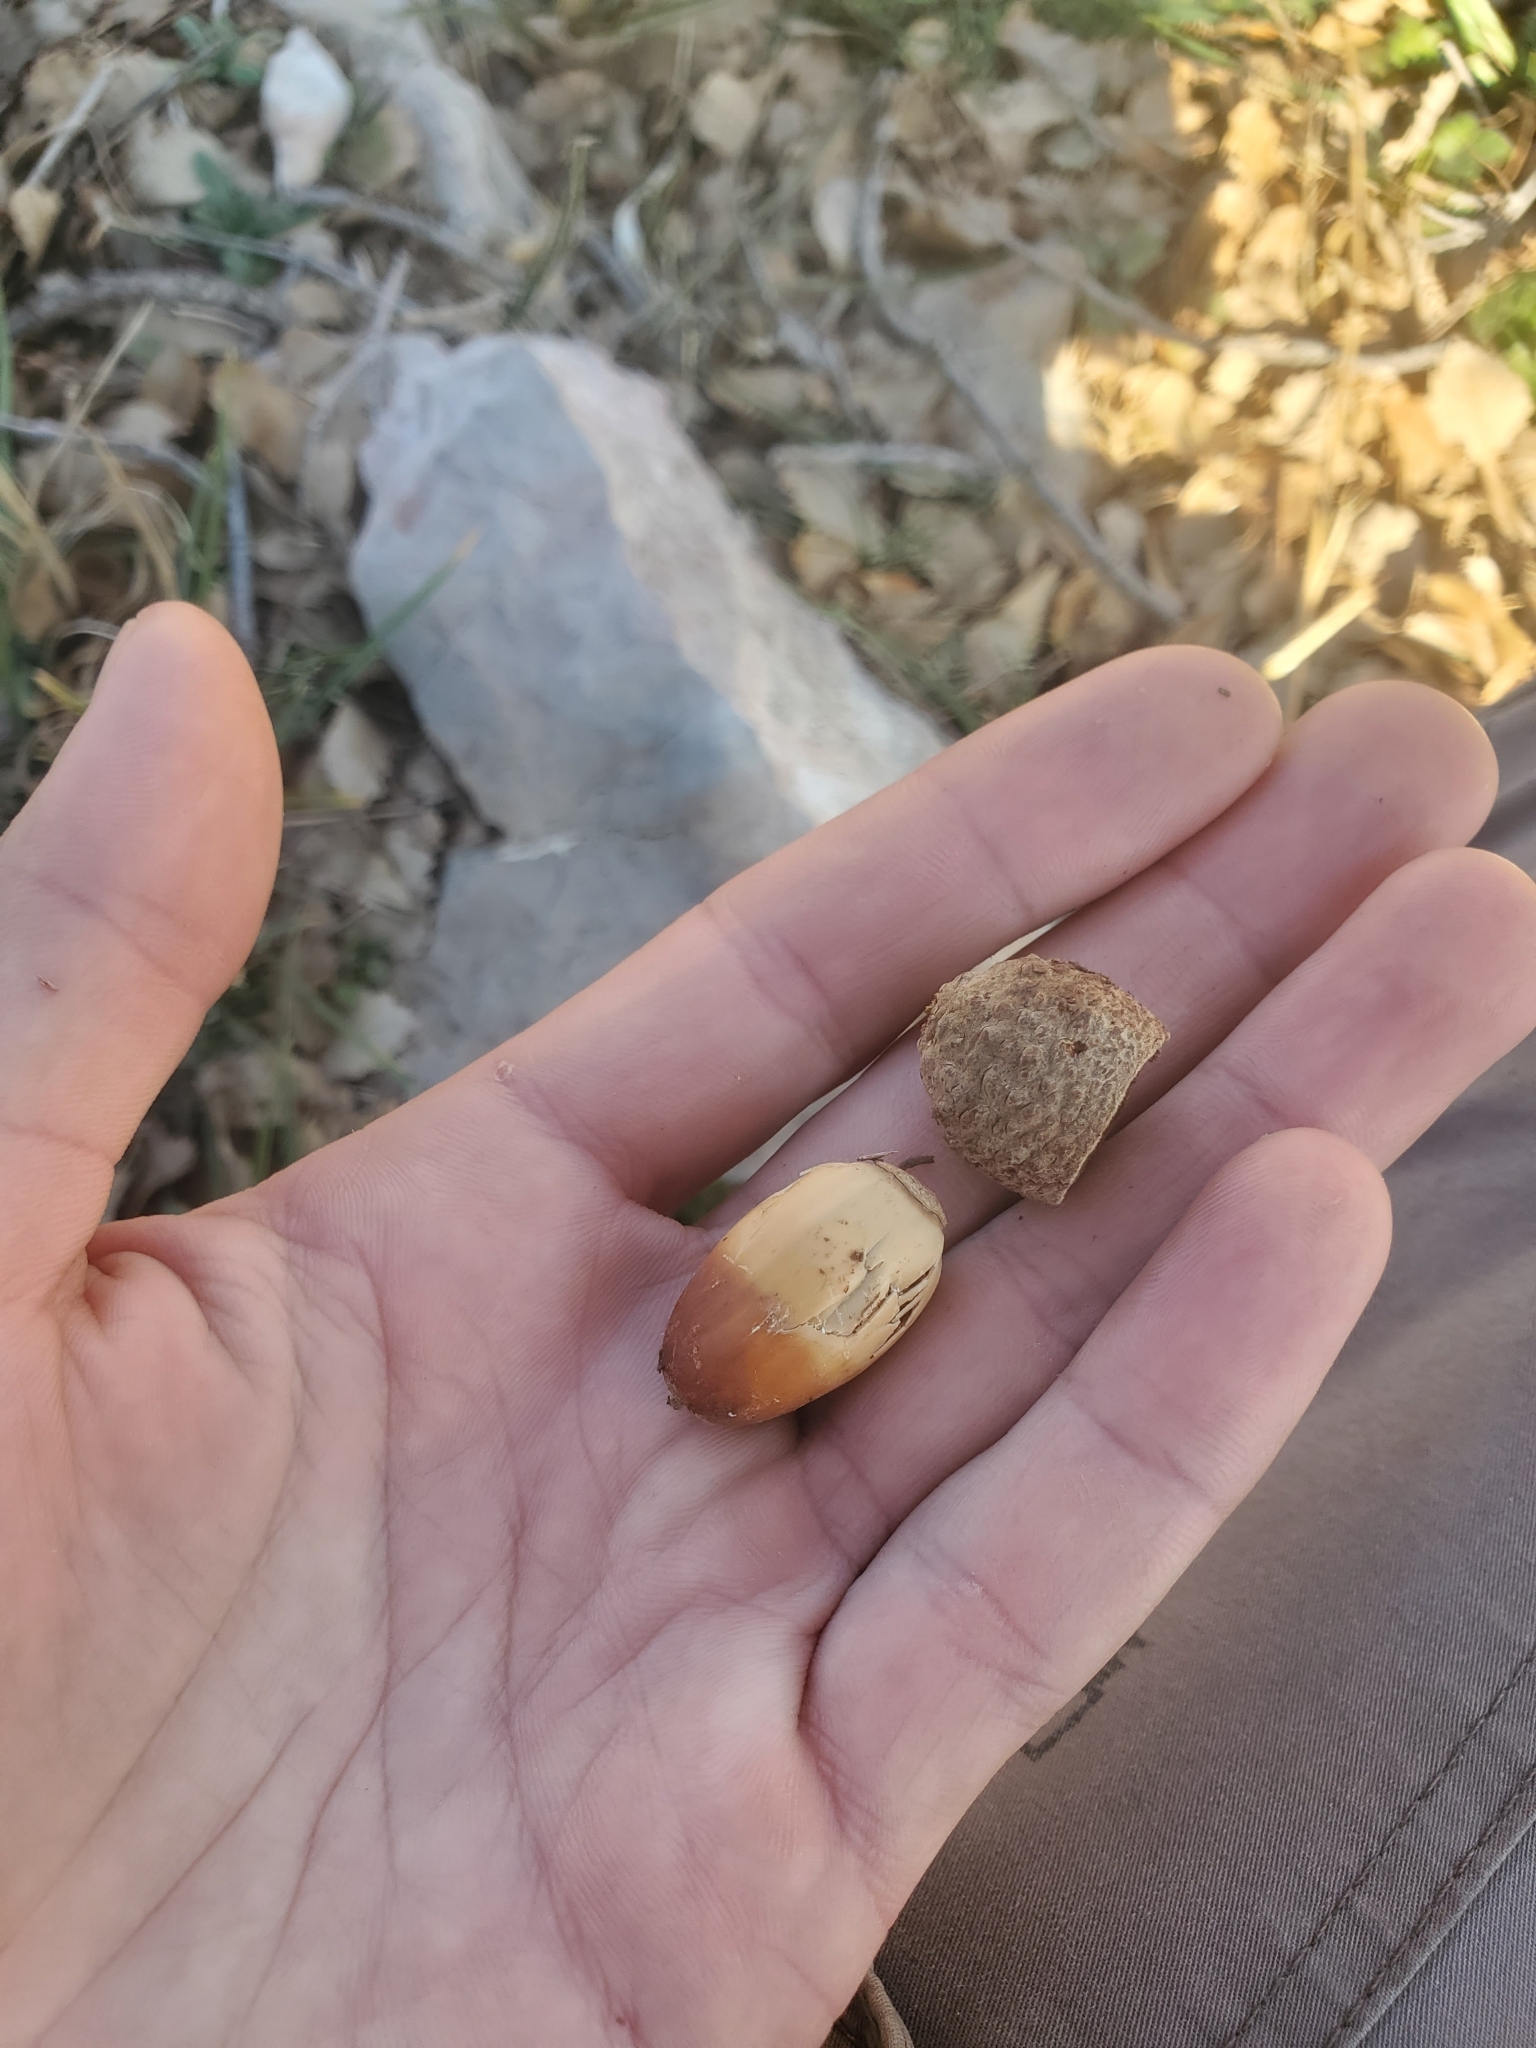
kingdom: Plantae
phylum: Tracheophyta
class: Magnoliopsida
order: Fagales
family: Fagaceae
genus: Quercus
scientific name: Quercus infectoria
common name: Aleppo oak
